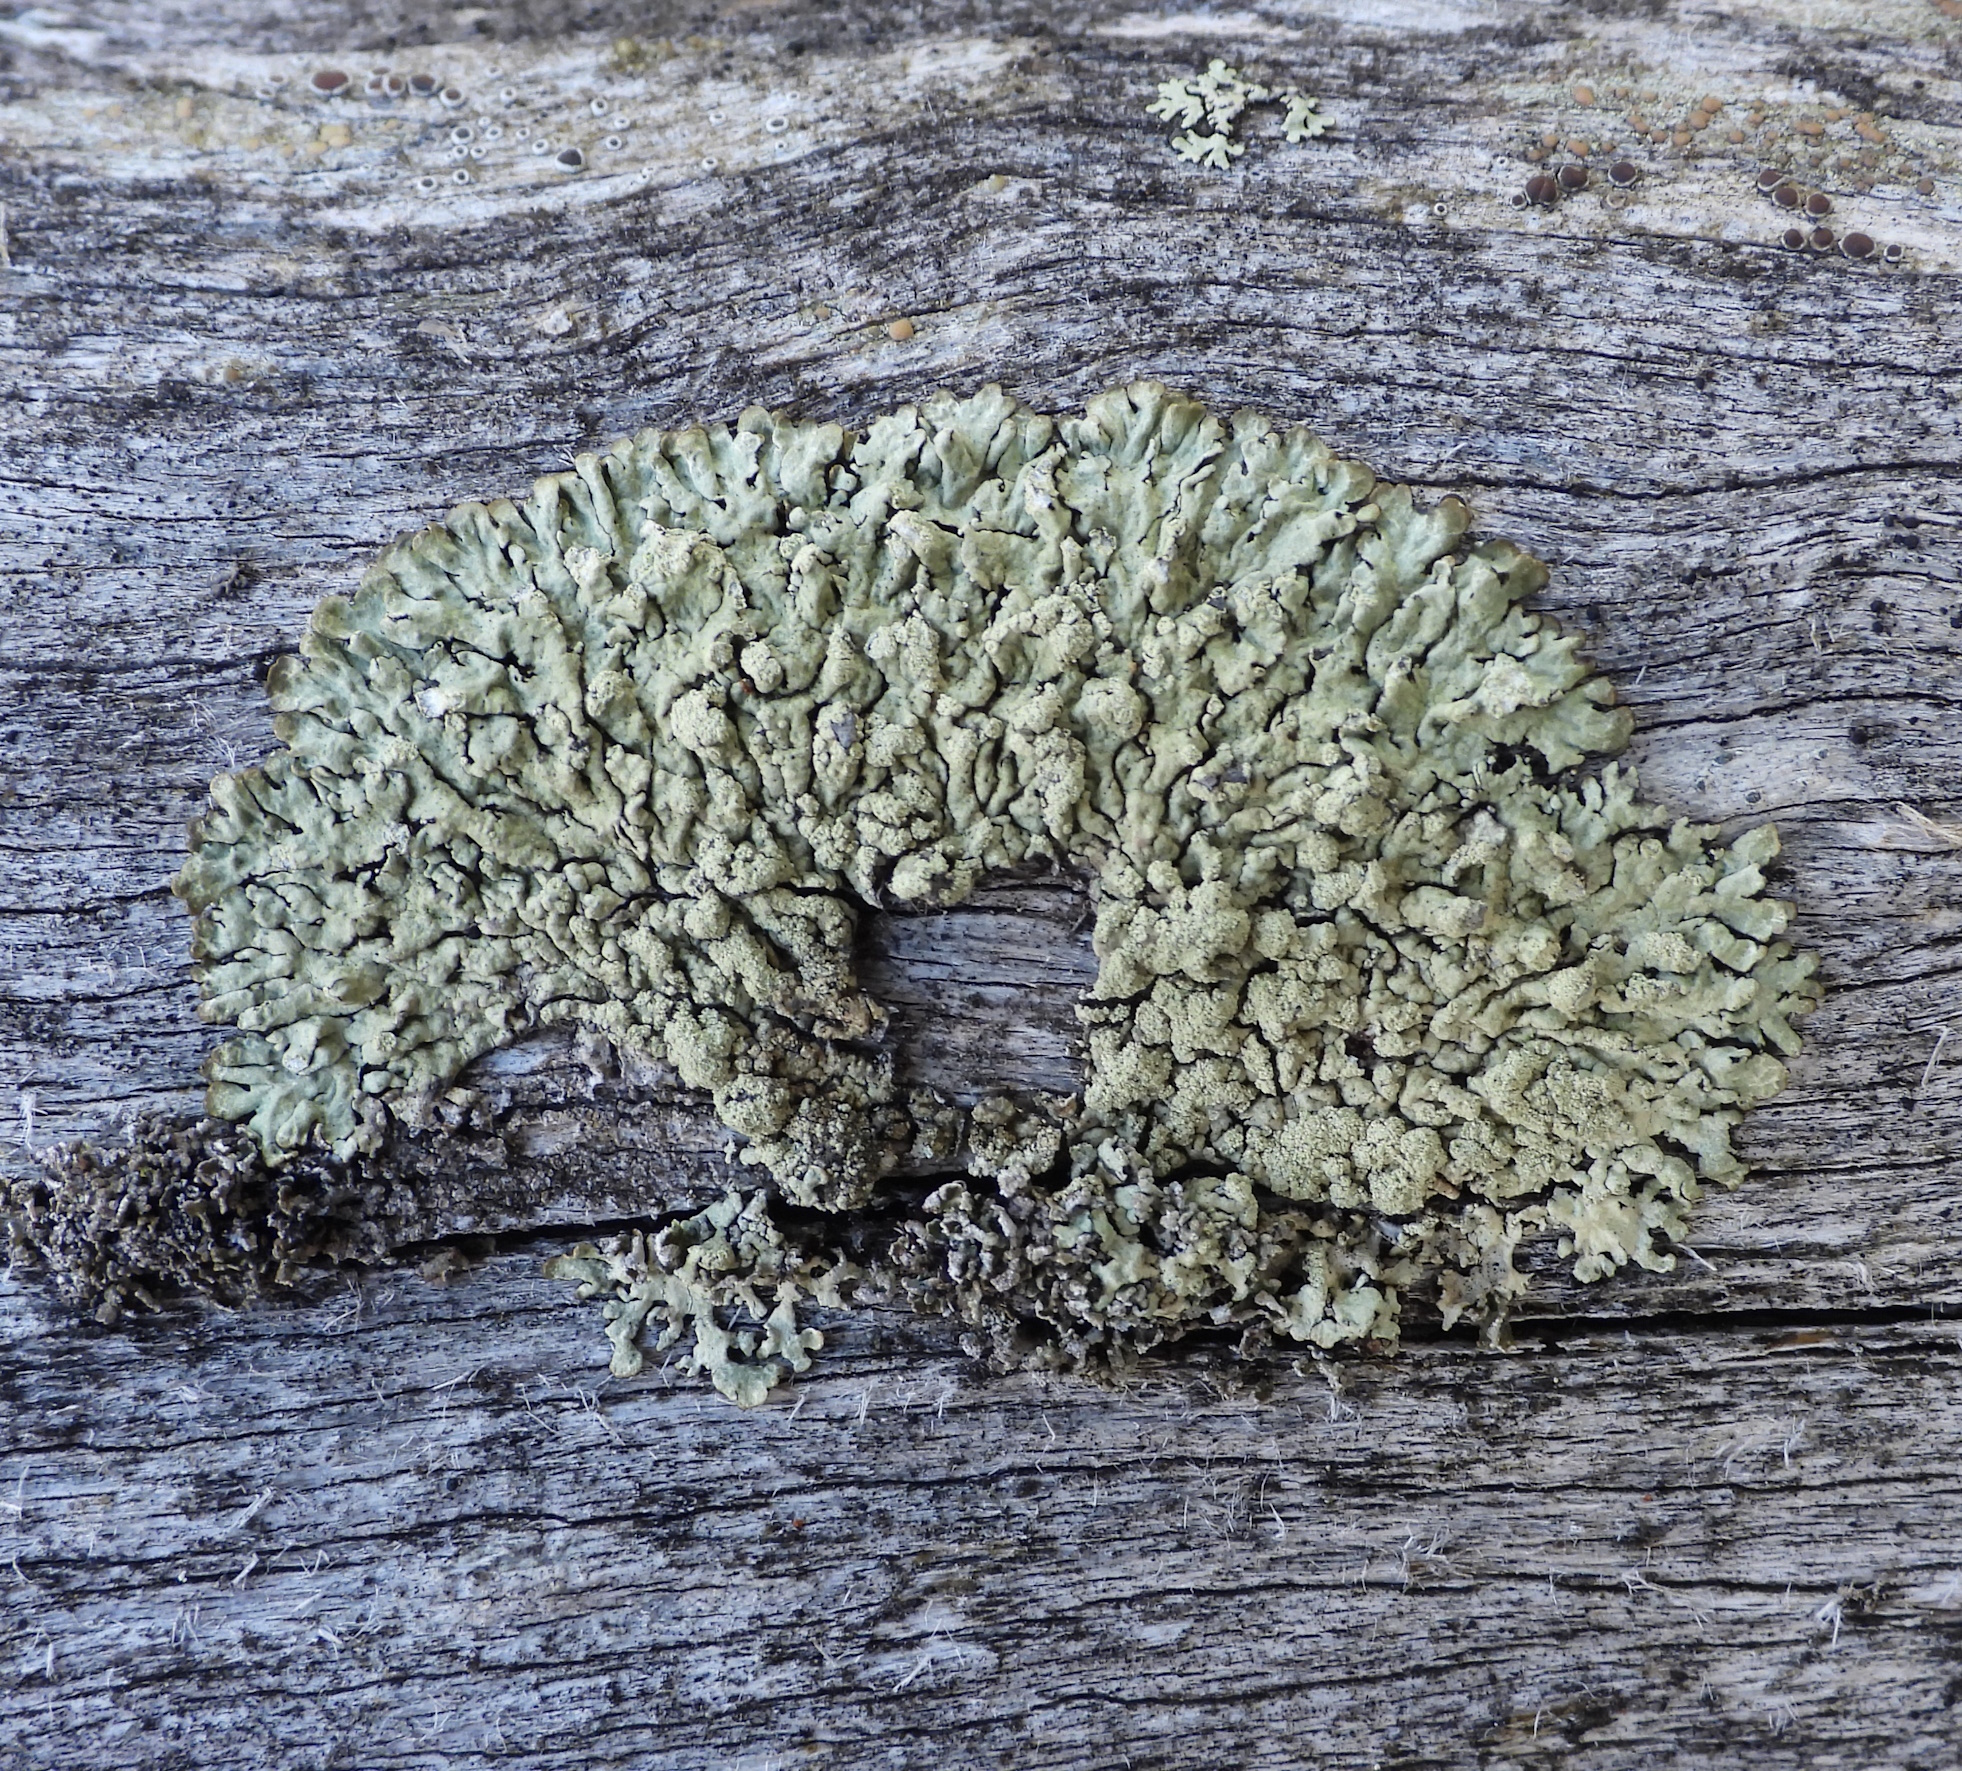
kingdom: Fungi
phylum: Ascomycota
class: Lecanoromycetes
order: Lecanorales
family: Parmeliaceae
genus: Parmeliopsis
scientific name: Parmeliopsis ambigua
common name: Green starburst lichen
